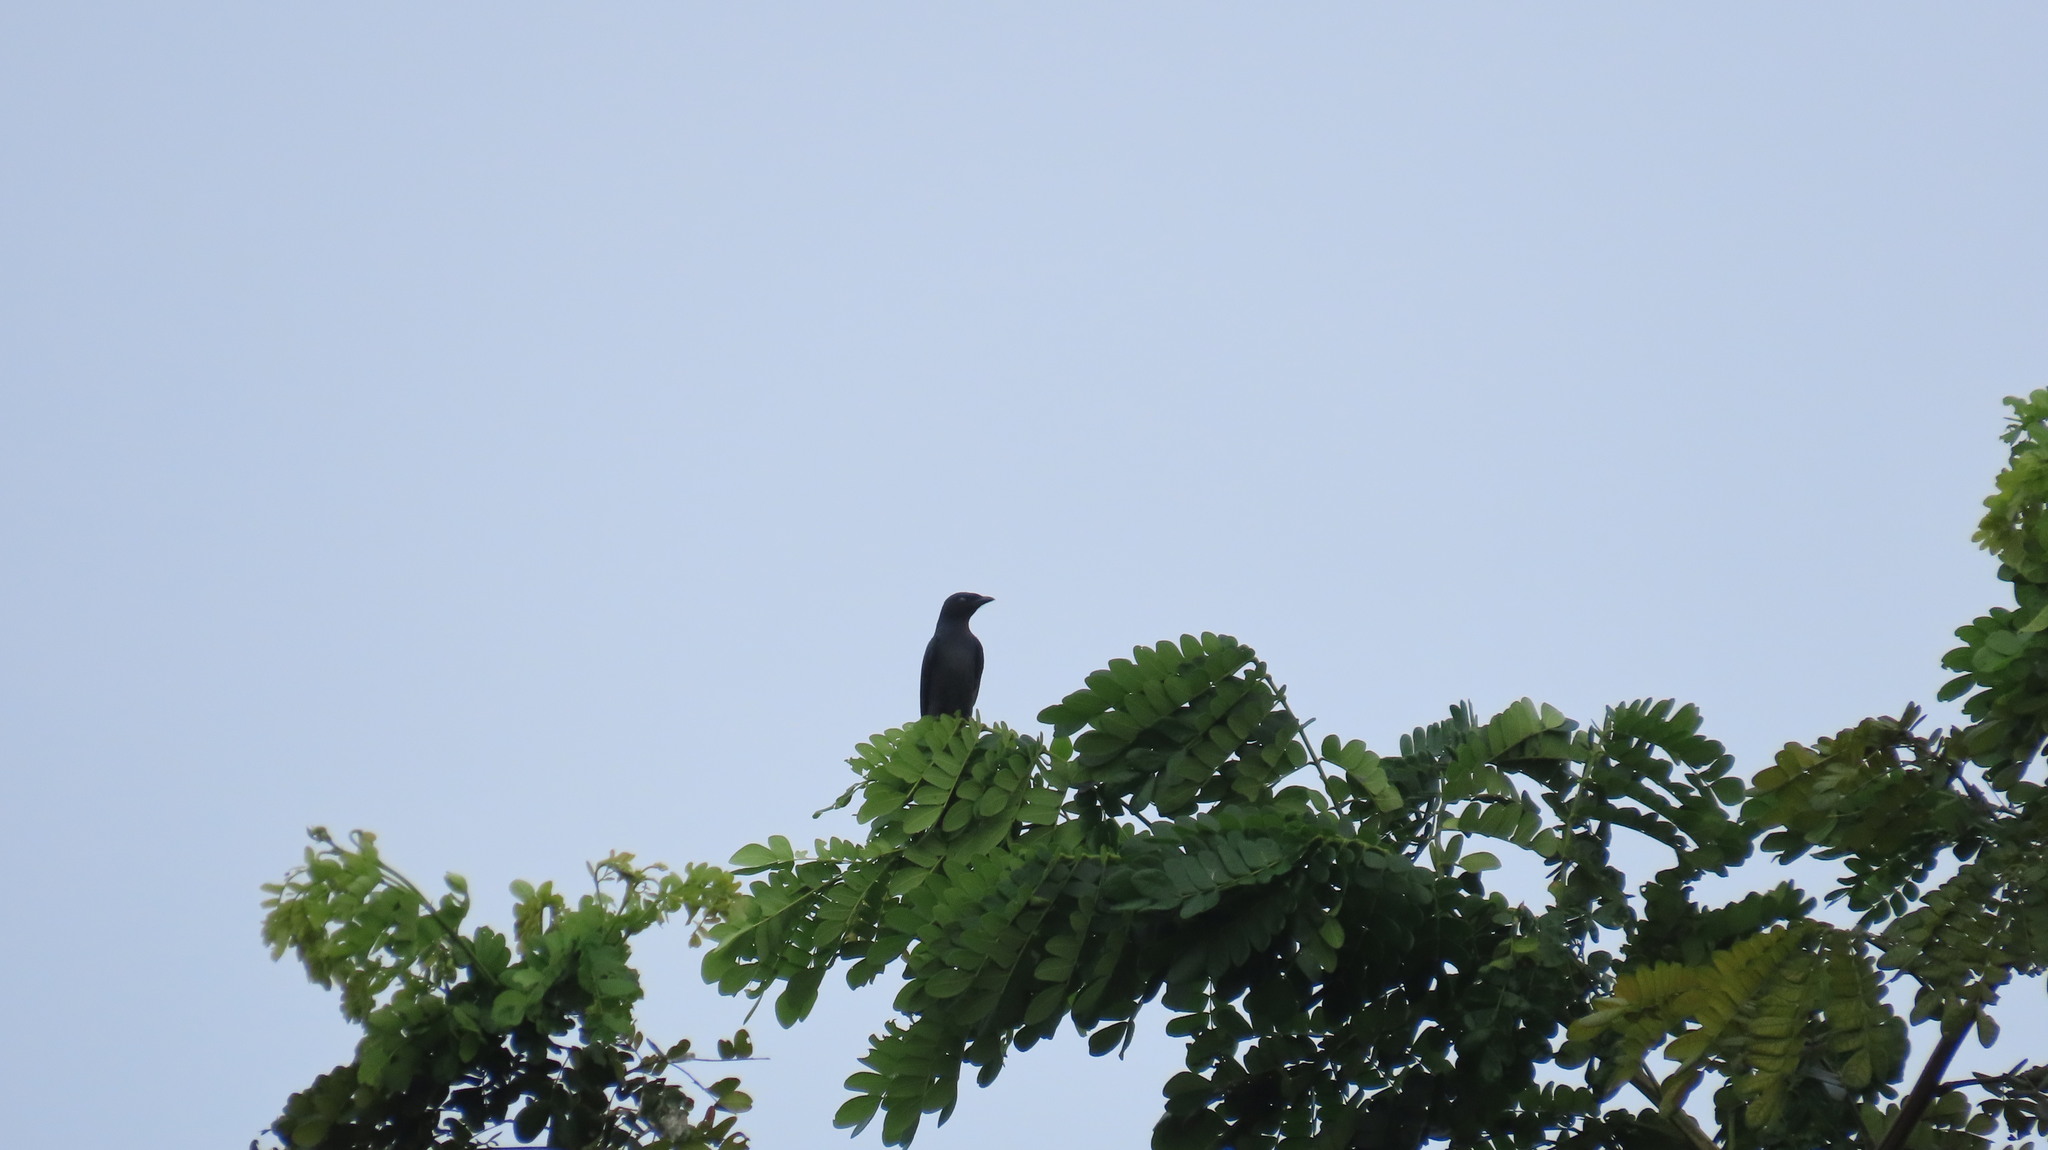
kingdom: Animalia
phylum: Chordata
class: Aves
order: Passeriformes
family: Dicruridae
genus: Dicrurus
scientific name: Dicrurus macrocercus
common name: Black drongo
